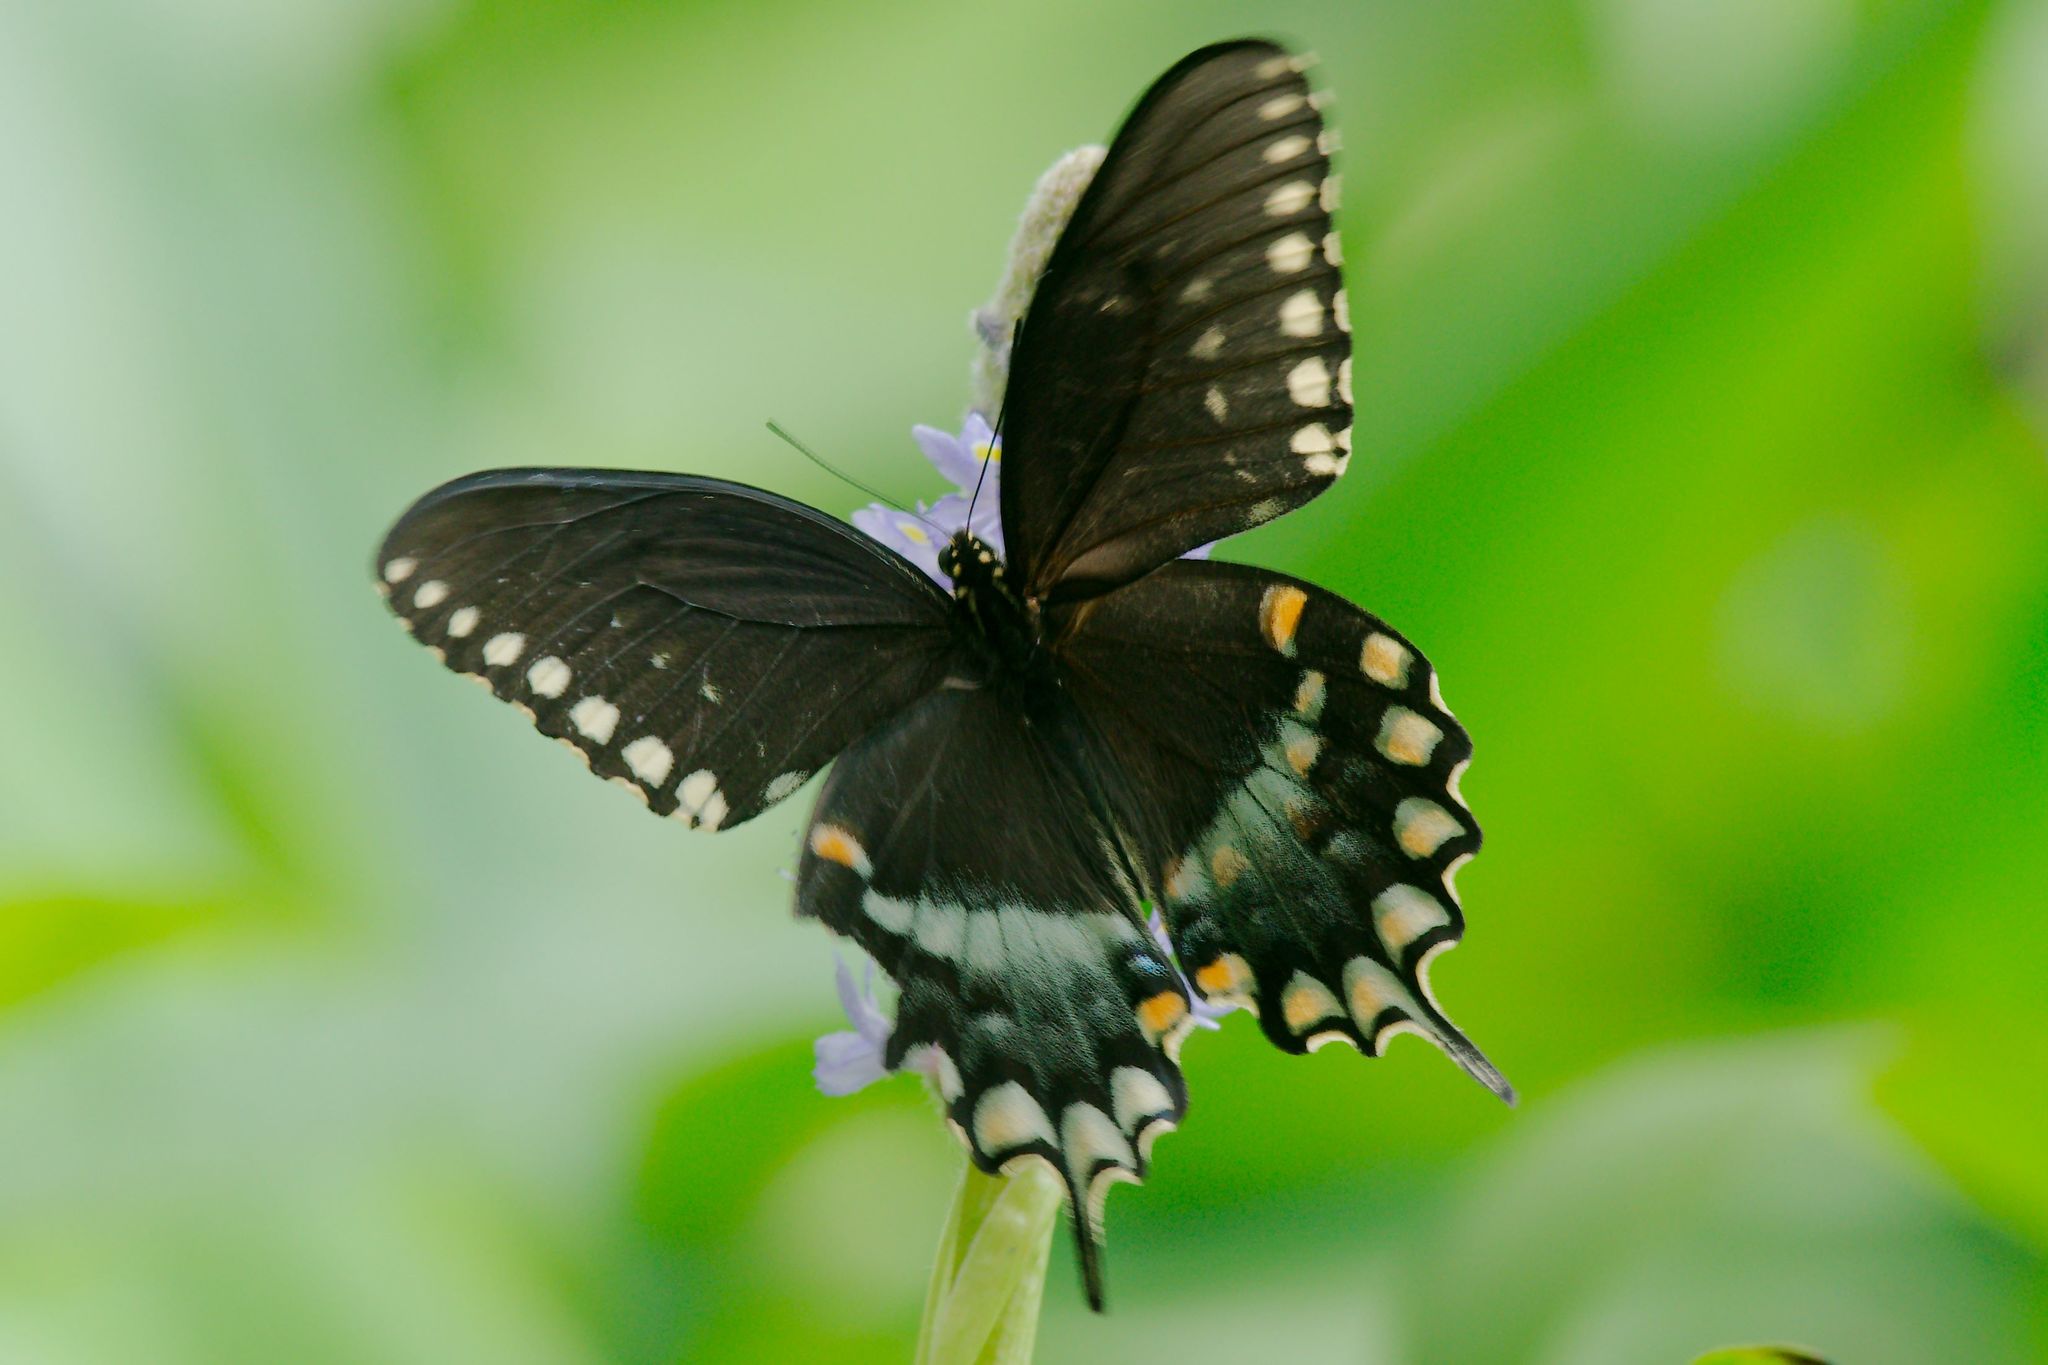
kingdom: Animalia
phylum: Arthropoda
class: Insecta
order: Lepidoptera
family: Papilionidae
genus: Papilio
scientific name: Papilio troilus
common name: Spicebush swallowtail
